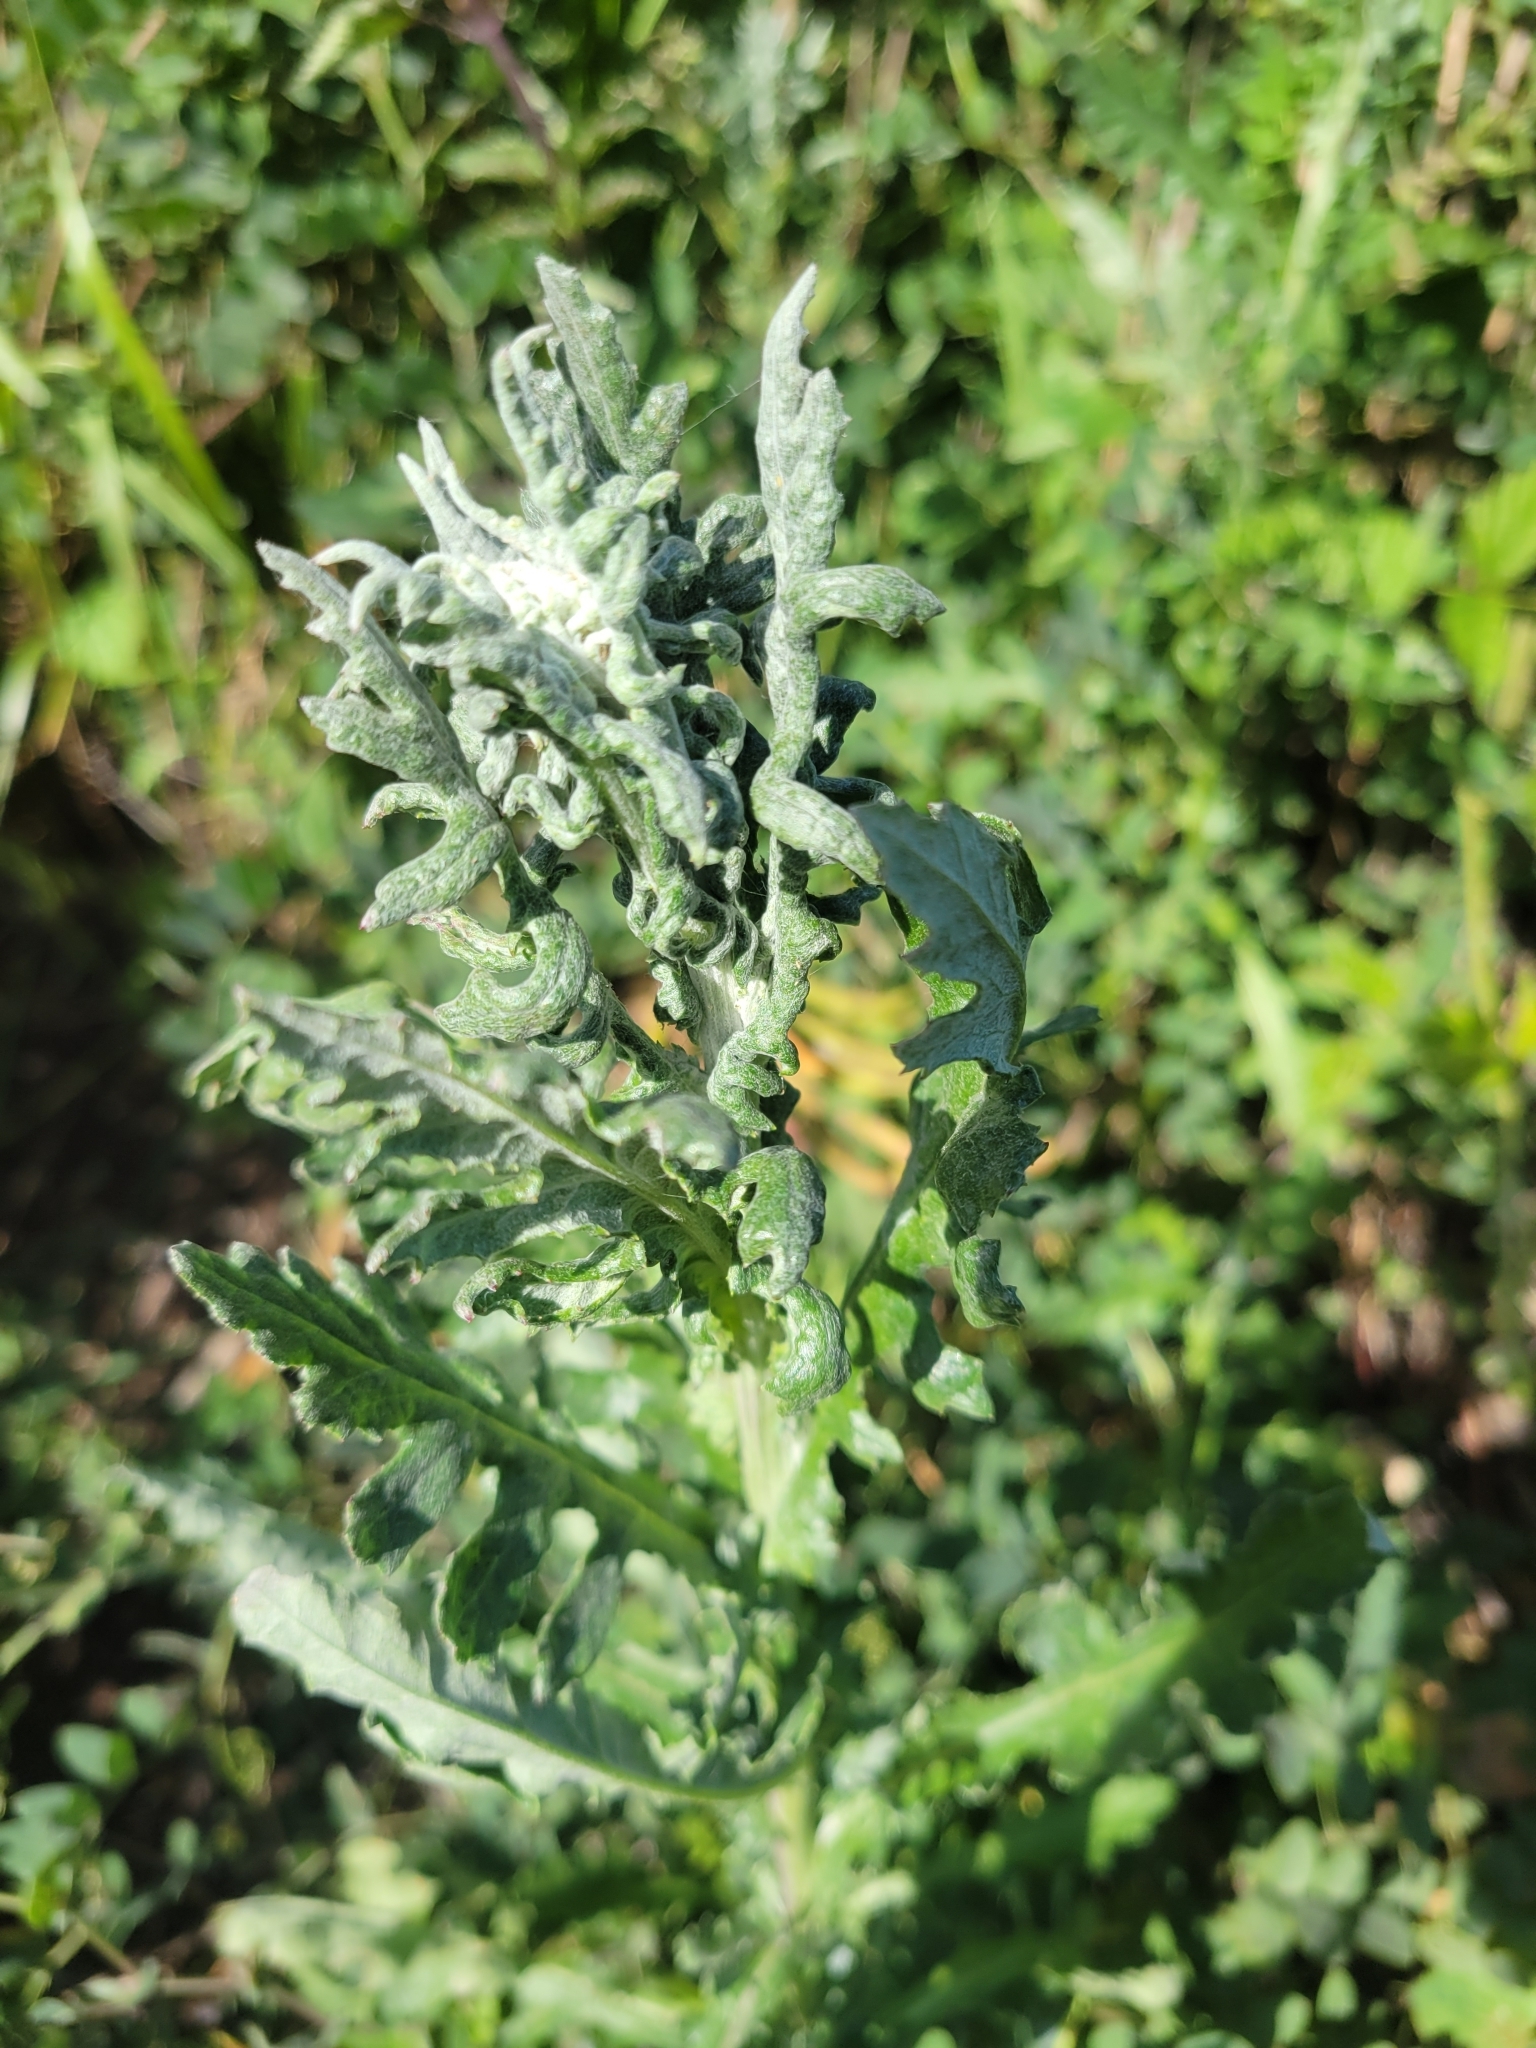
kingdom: Plantae
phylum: Tracheophyta
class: Magnoliopsida
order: Asterales
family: Asteraceae
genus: Senecio
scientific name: Senecio glomeratus
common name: Cutleaf burnweed
